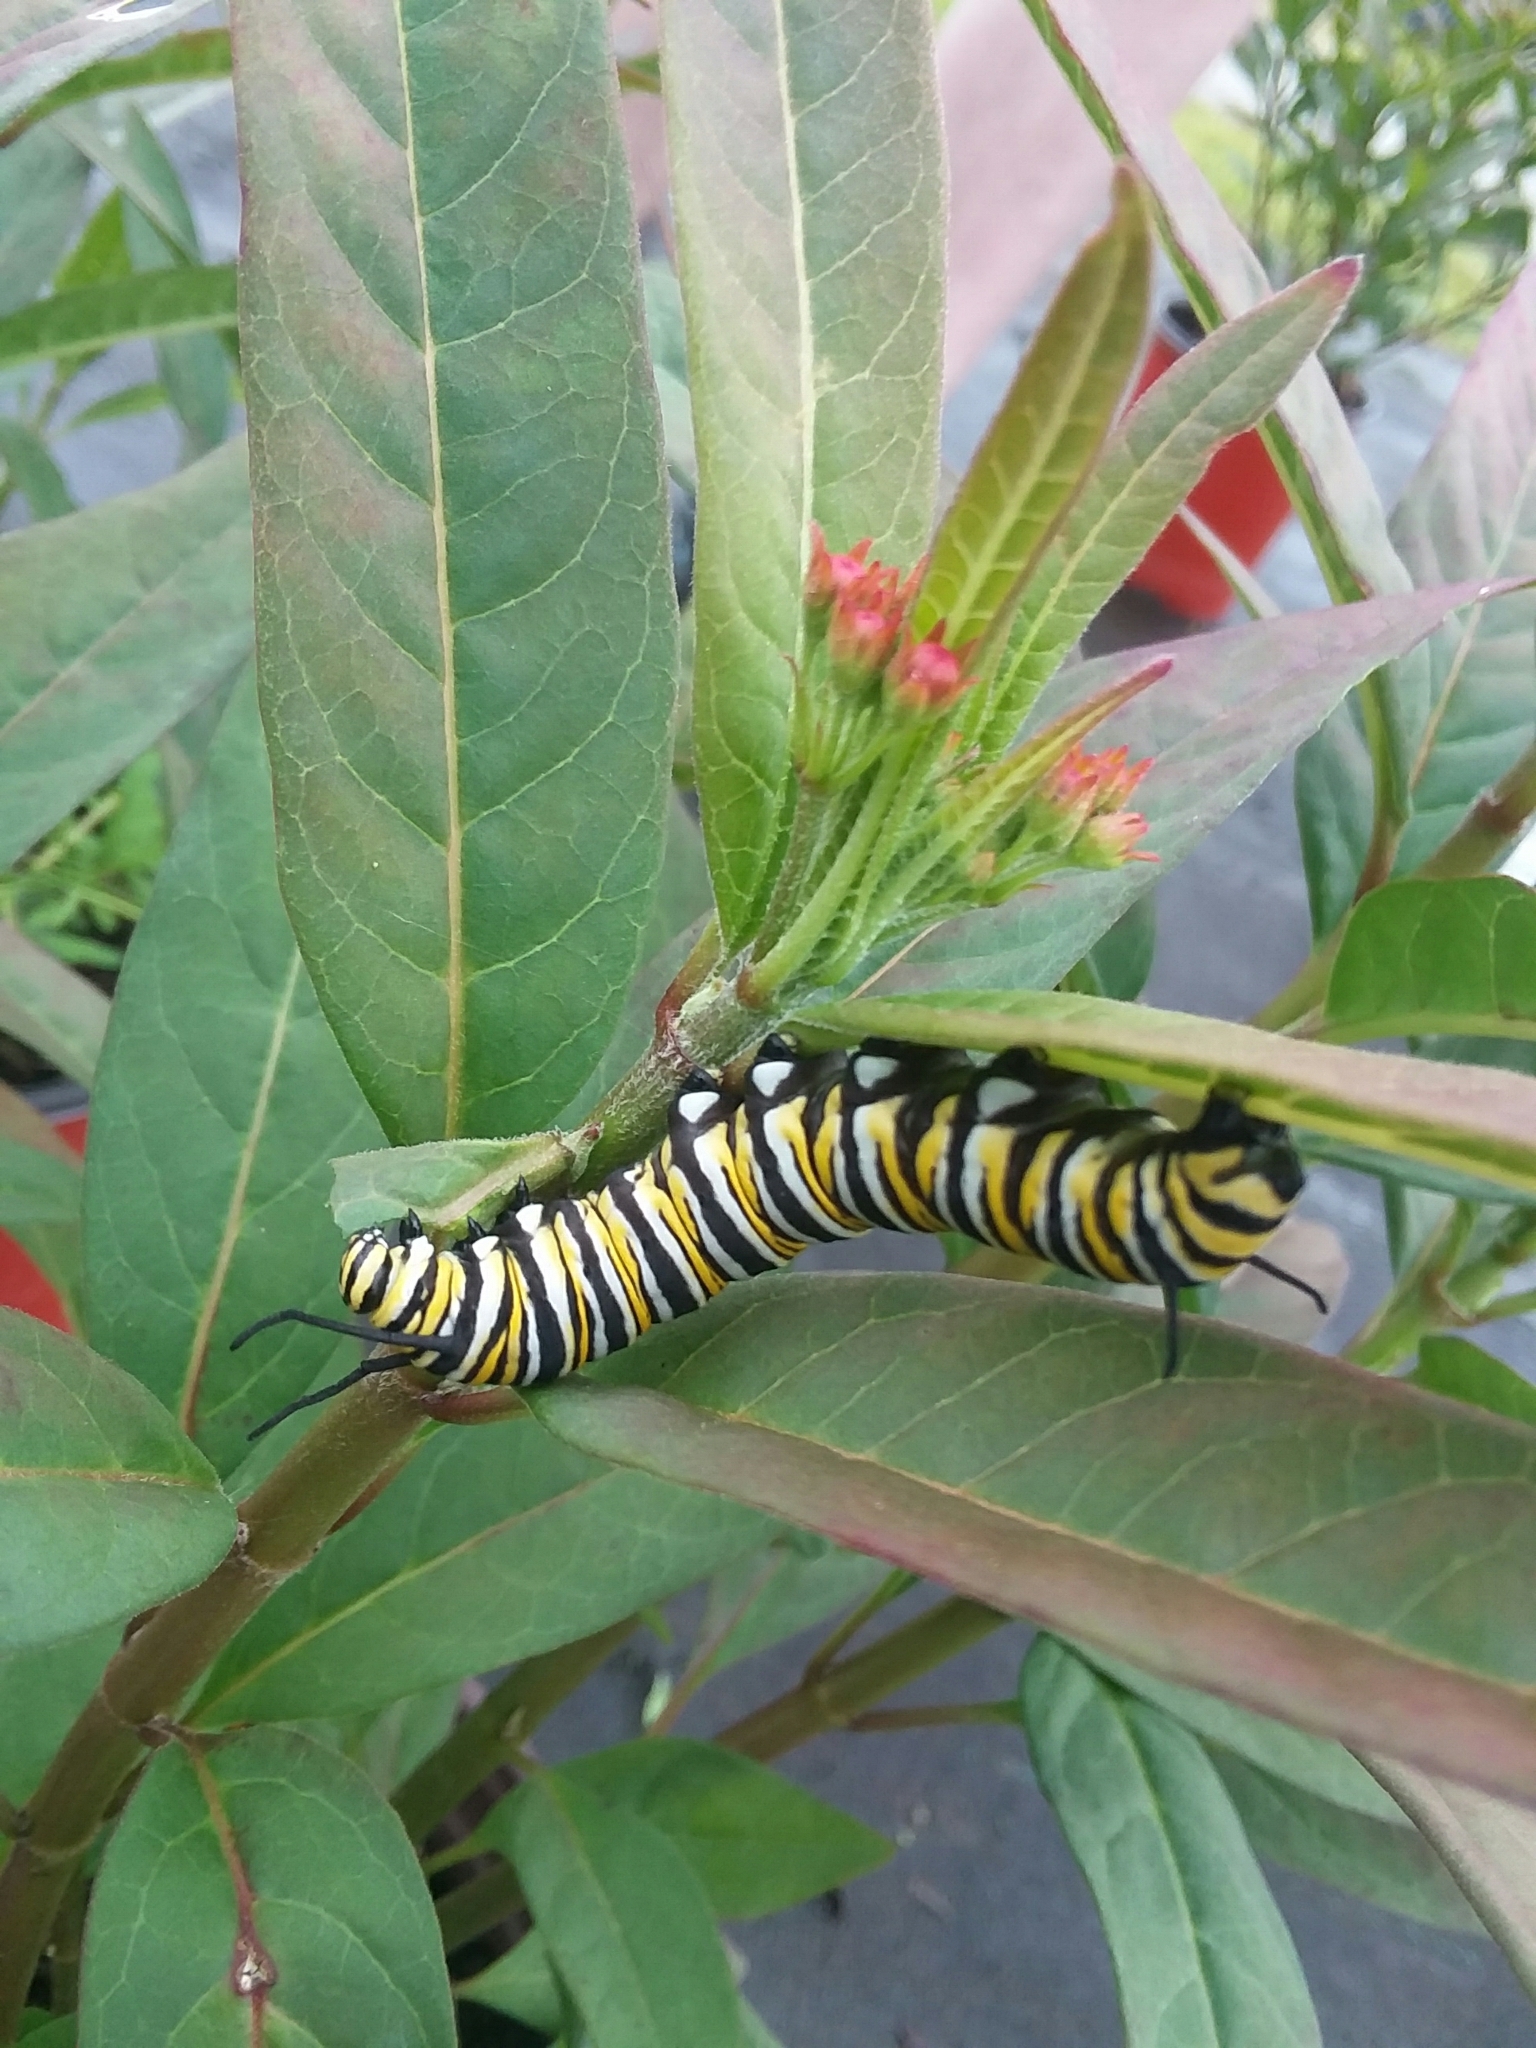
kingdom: Animalia
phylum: Arthropoda
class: Insecta
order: Lepidoptera
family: Nymphalidae
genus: Danaus
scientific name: Danaus plexippus
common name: Monarch
